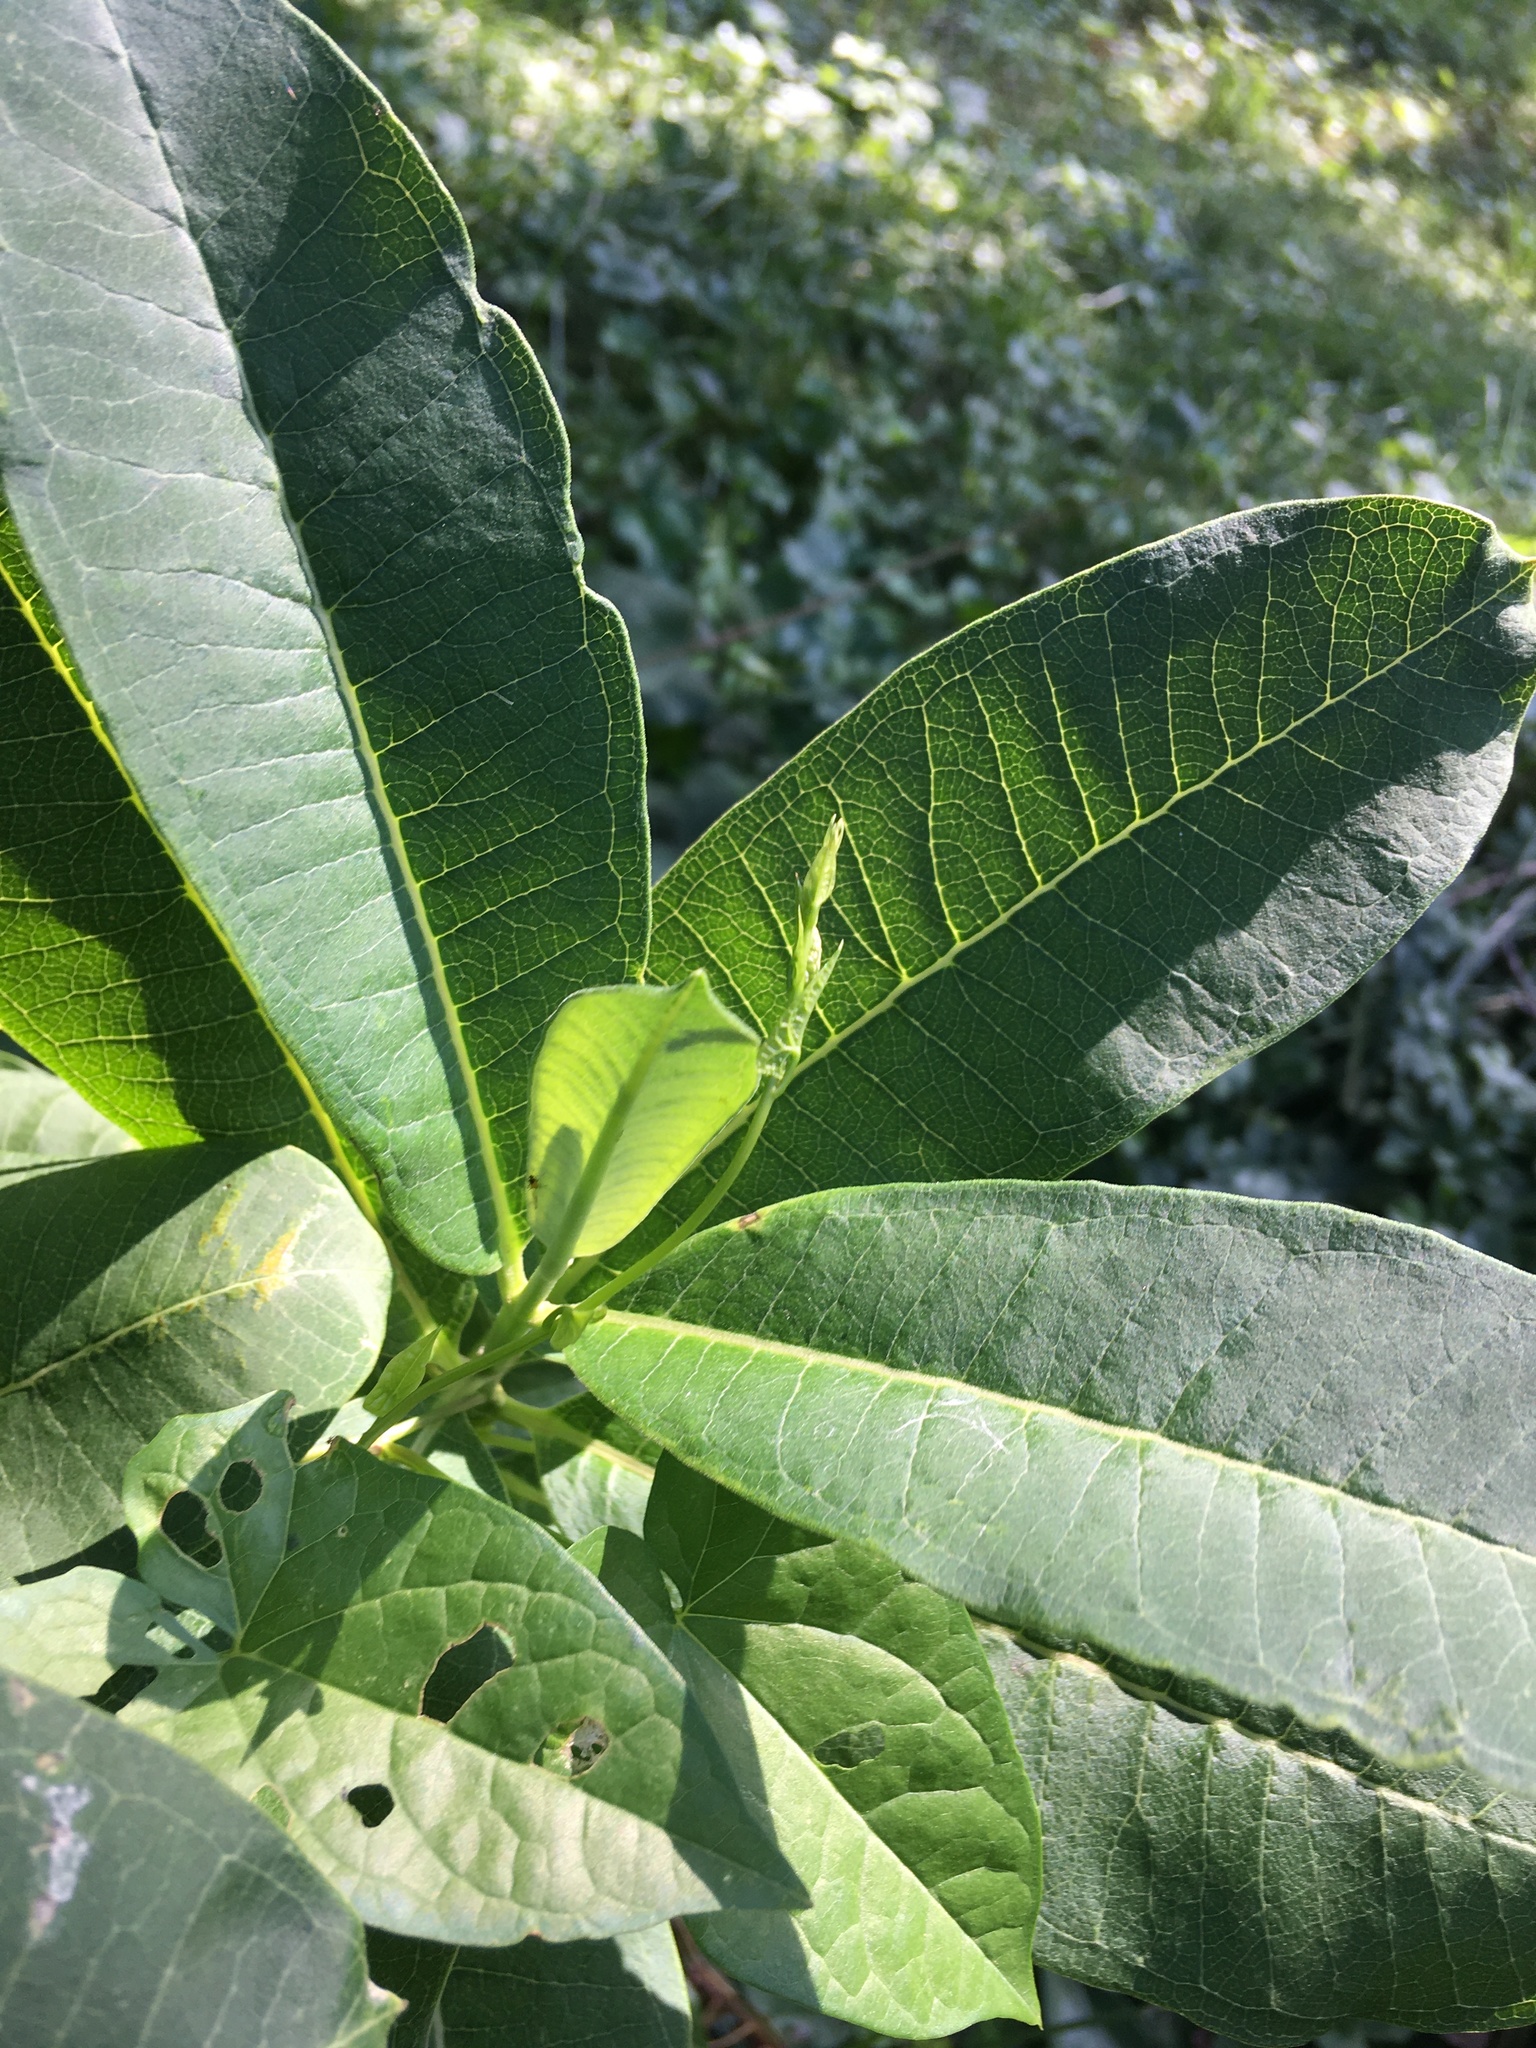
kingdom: Plantae
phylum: Tracheophyta
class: Magnoliopsida
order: Gentianales
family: Apocynaceae
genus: Asclepias
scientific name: Asclepias syriaca
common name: Common milkweed
